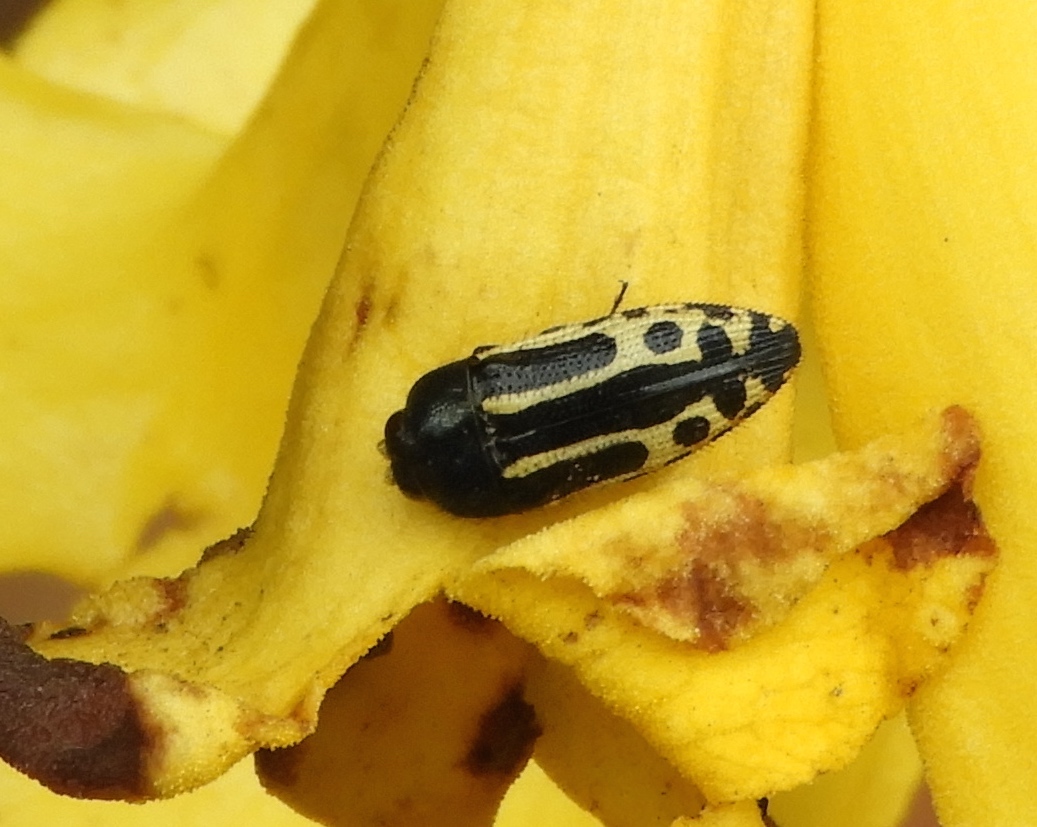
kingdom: Animalia
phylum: Arthropoda
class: Insecta
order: Coleoptera
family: Buprestidae
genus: Acmaeodera
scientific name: Acmaeodera scalaris
